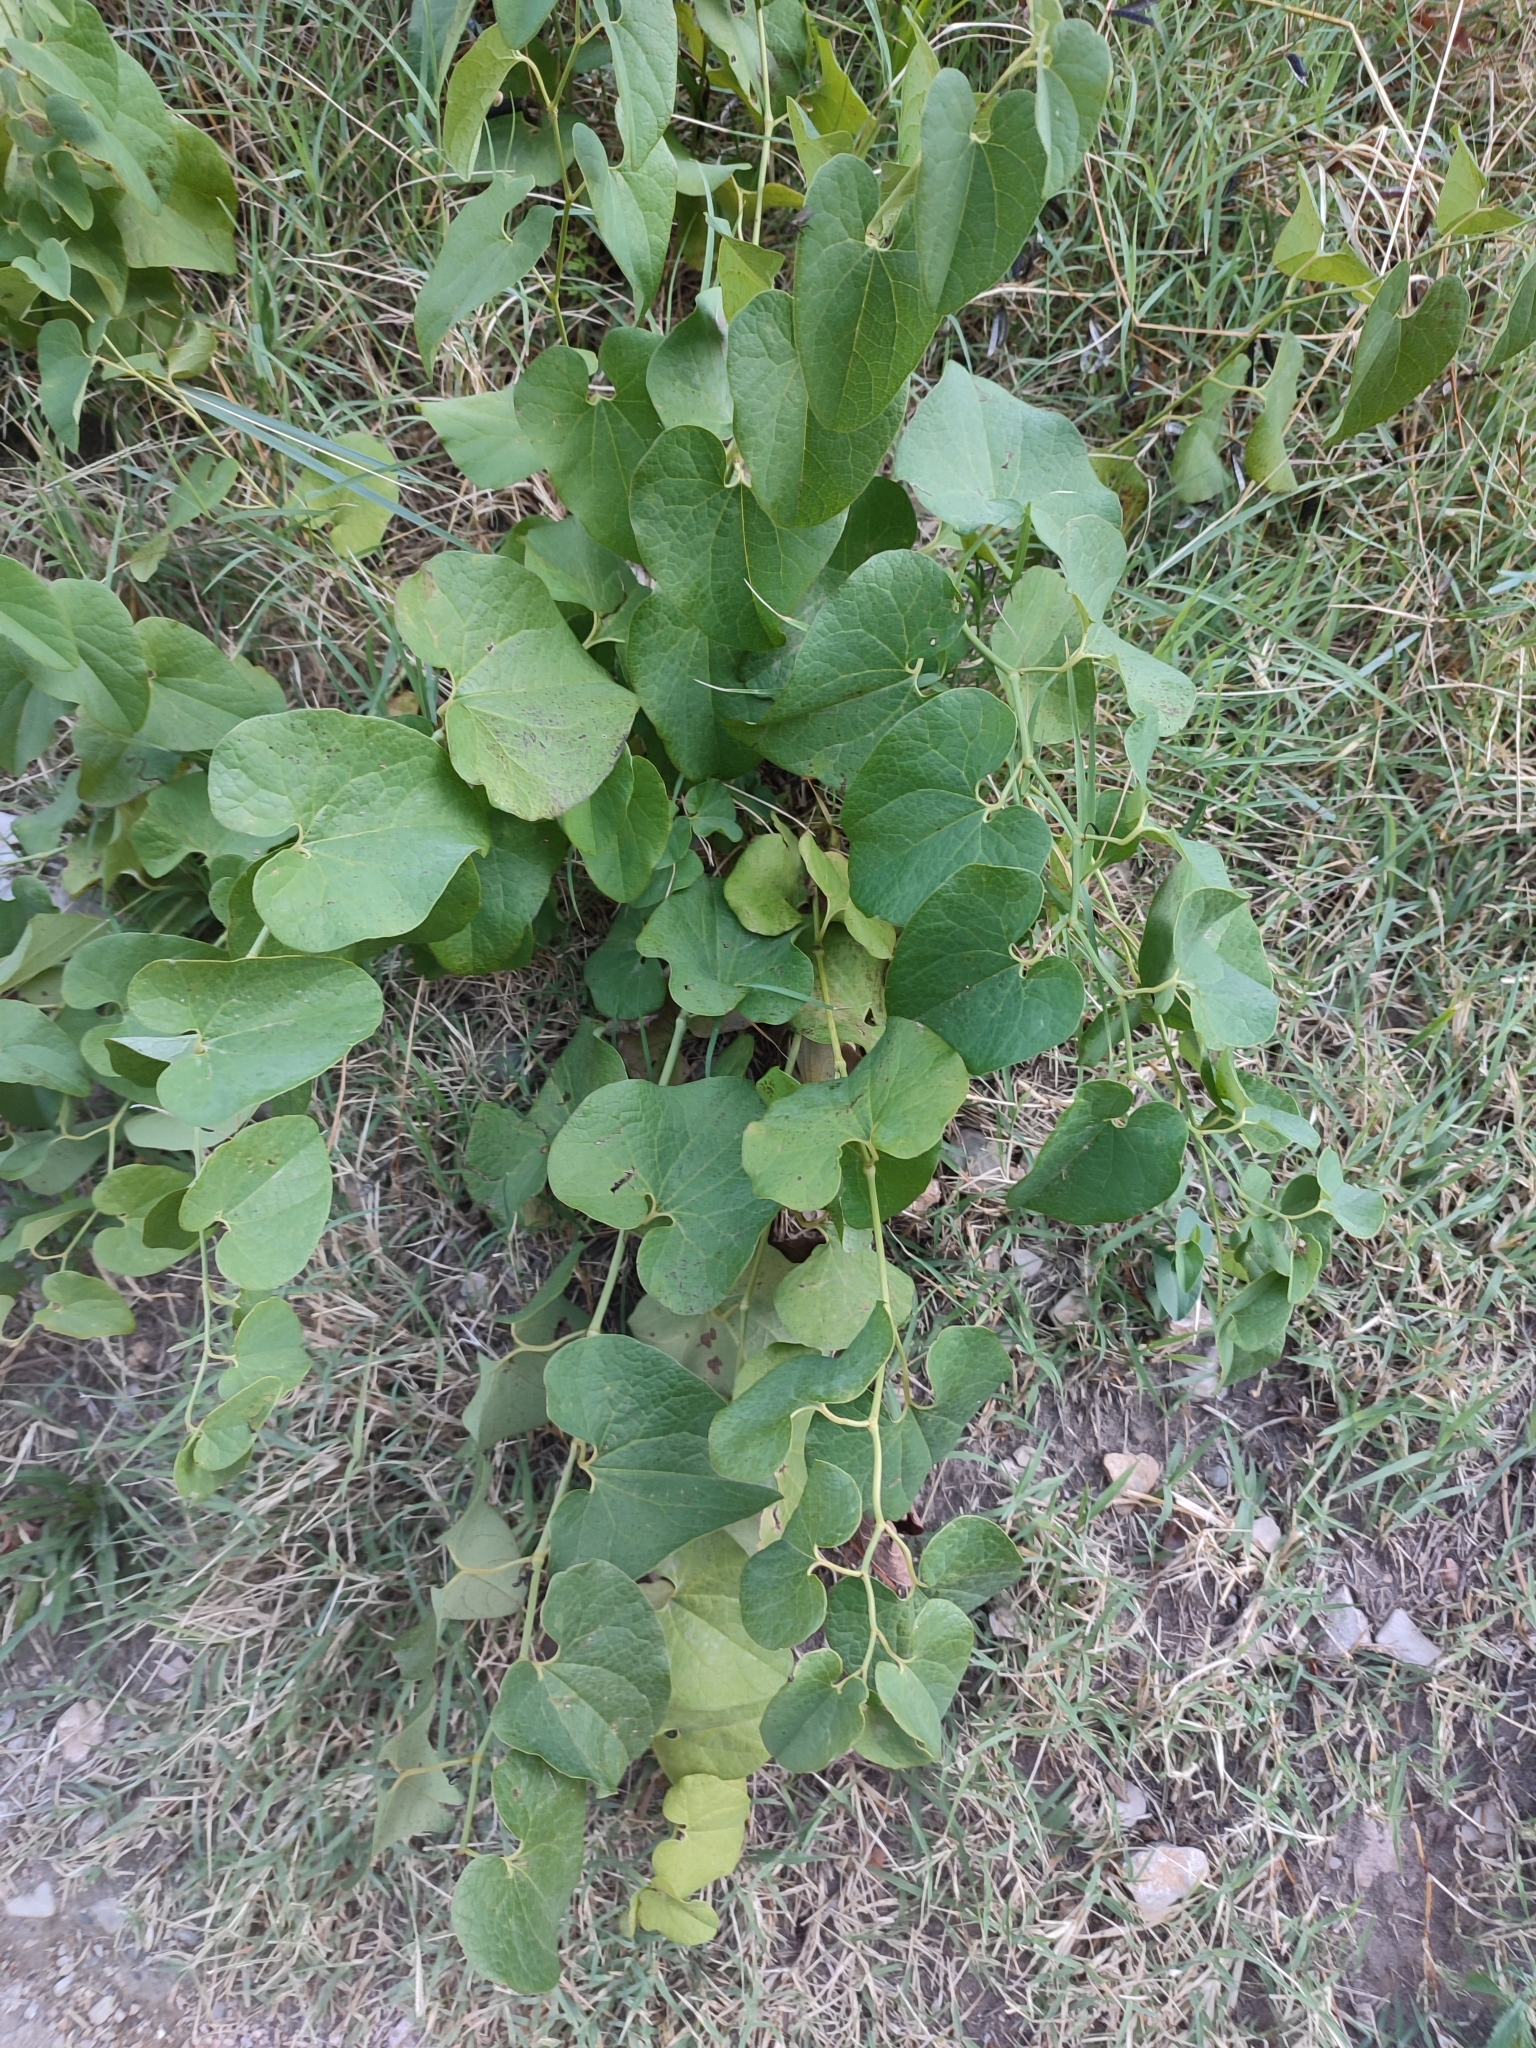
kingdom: Plantae
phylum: Tracheophyta
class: Magnoliopsida
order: Piperales
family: Aristolochiaceae
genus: Aristolochia
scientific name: Aristolochia clematitis
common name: Birthwort
